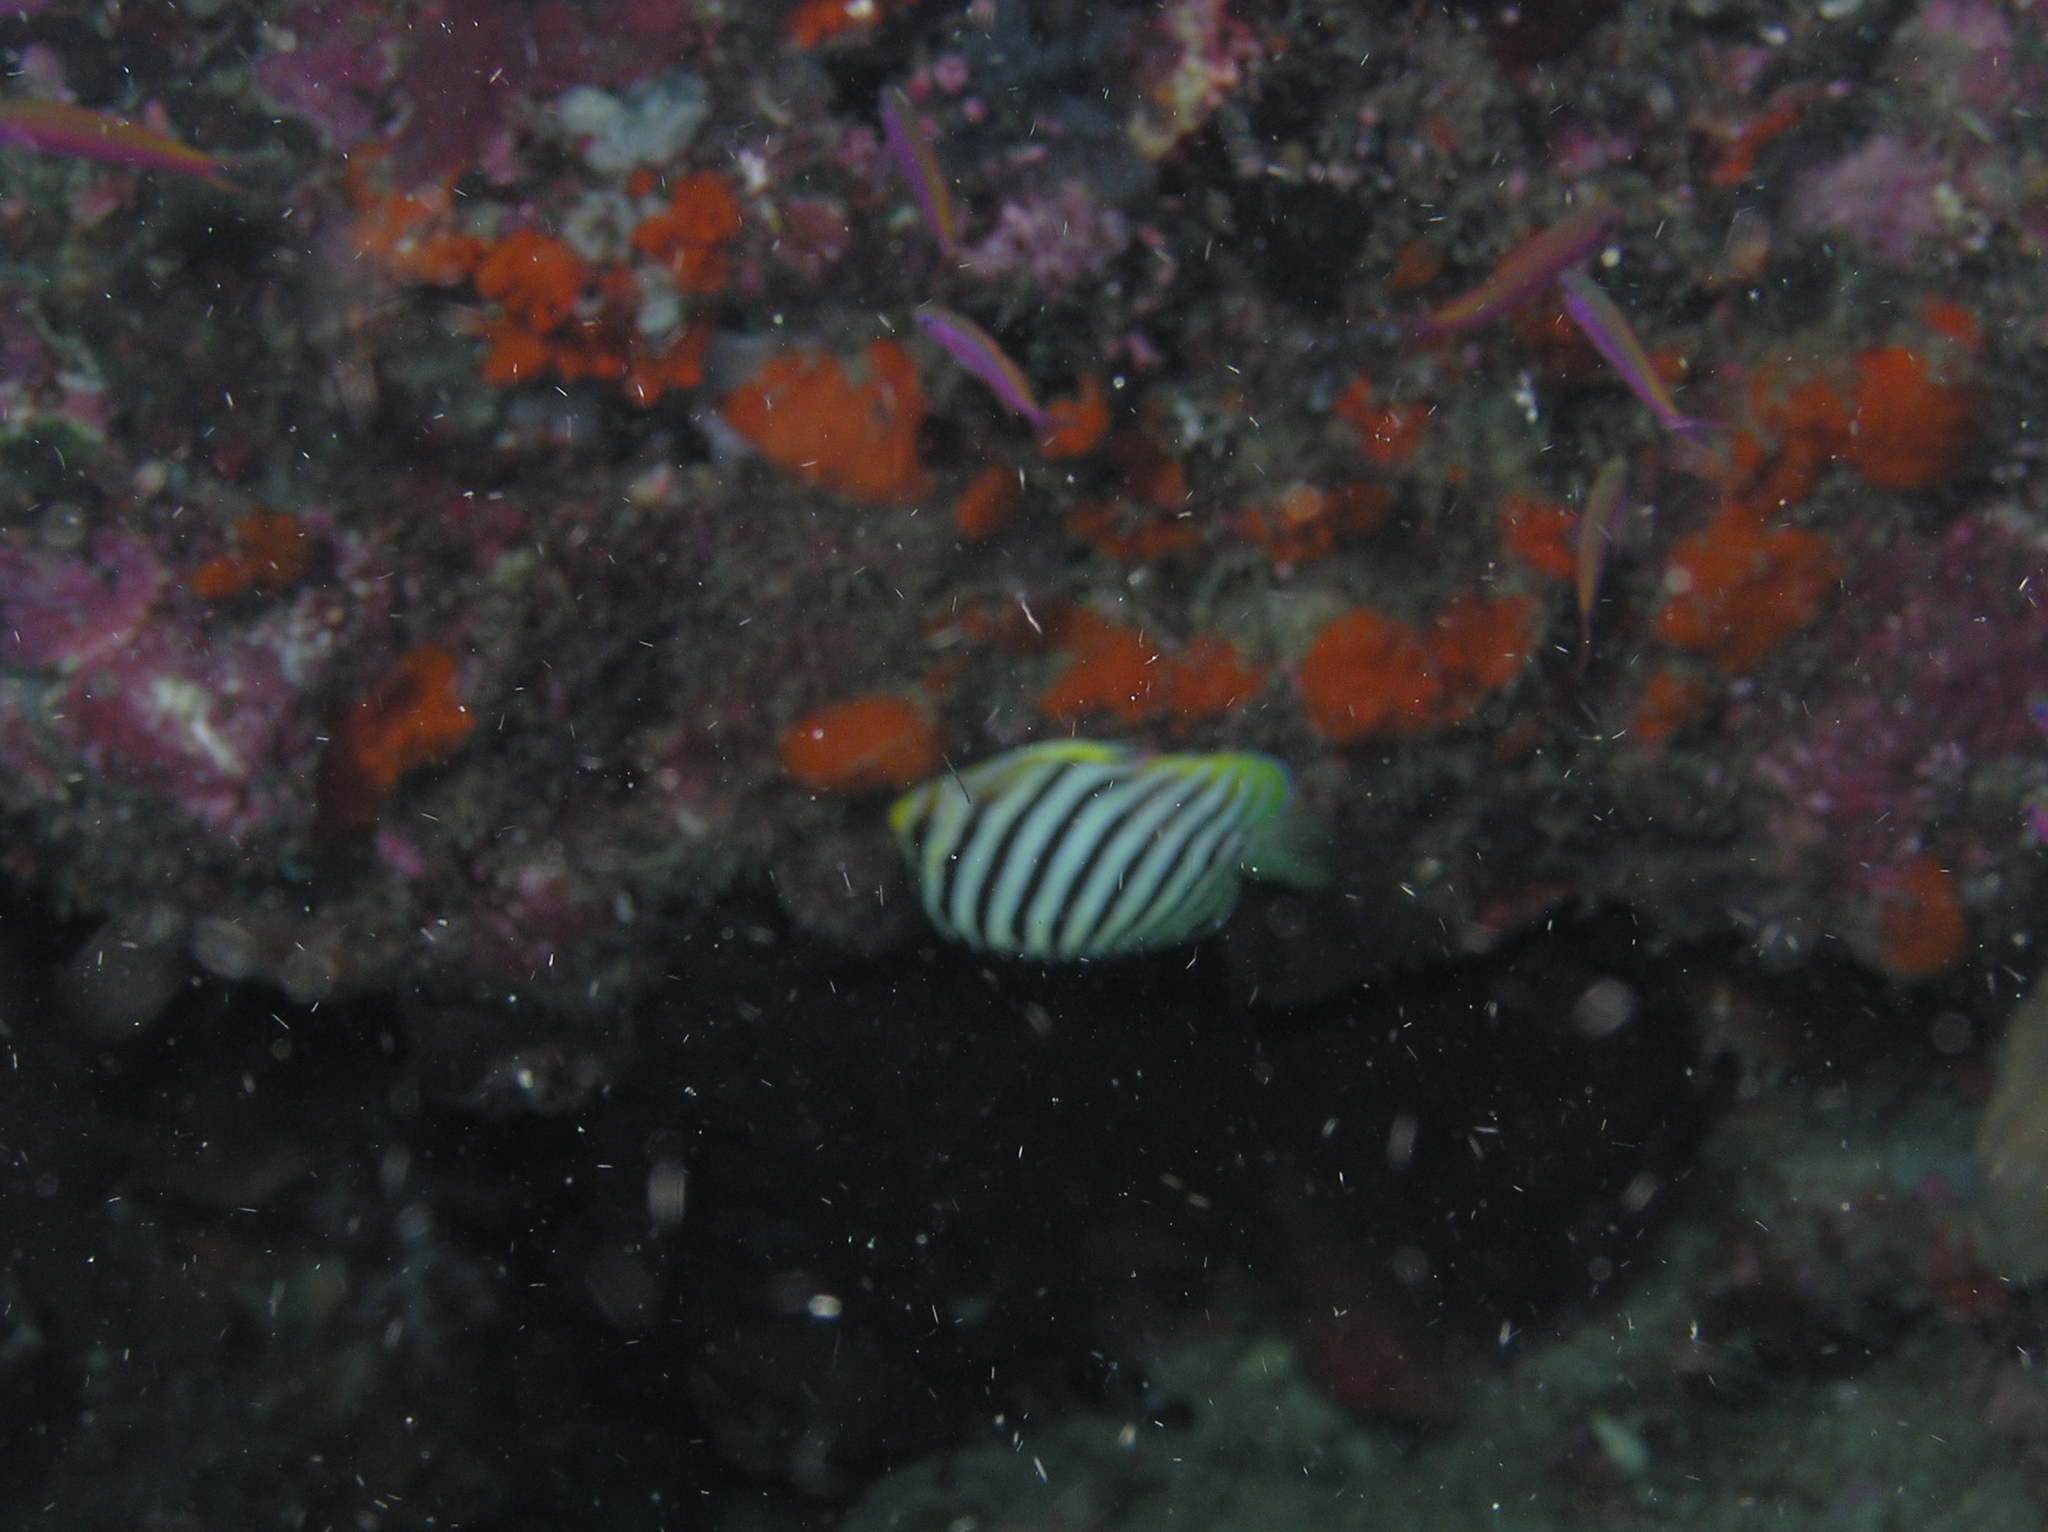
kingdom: Animalia
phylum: Chordata
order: Perciformes
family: Pomacanthidae
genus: Paracentropyge
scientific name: Paracentropyge multifasciata
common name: Barred angelfish
